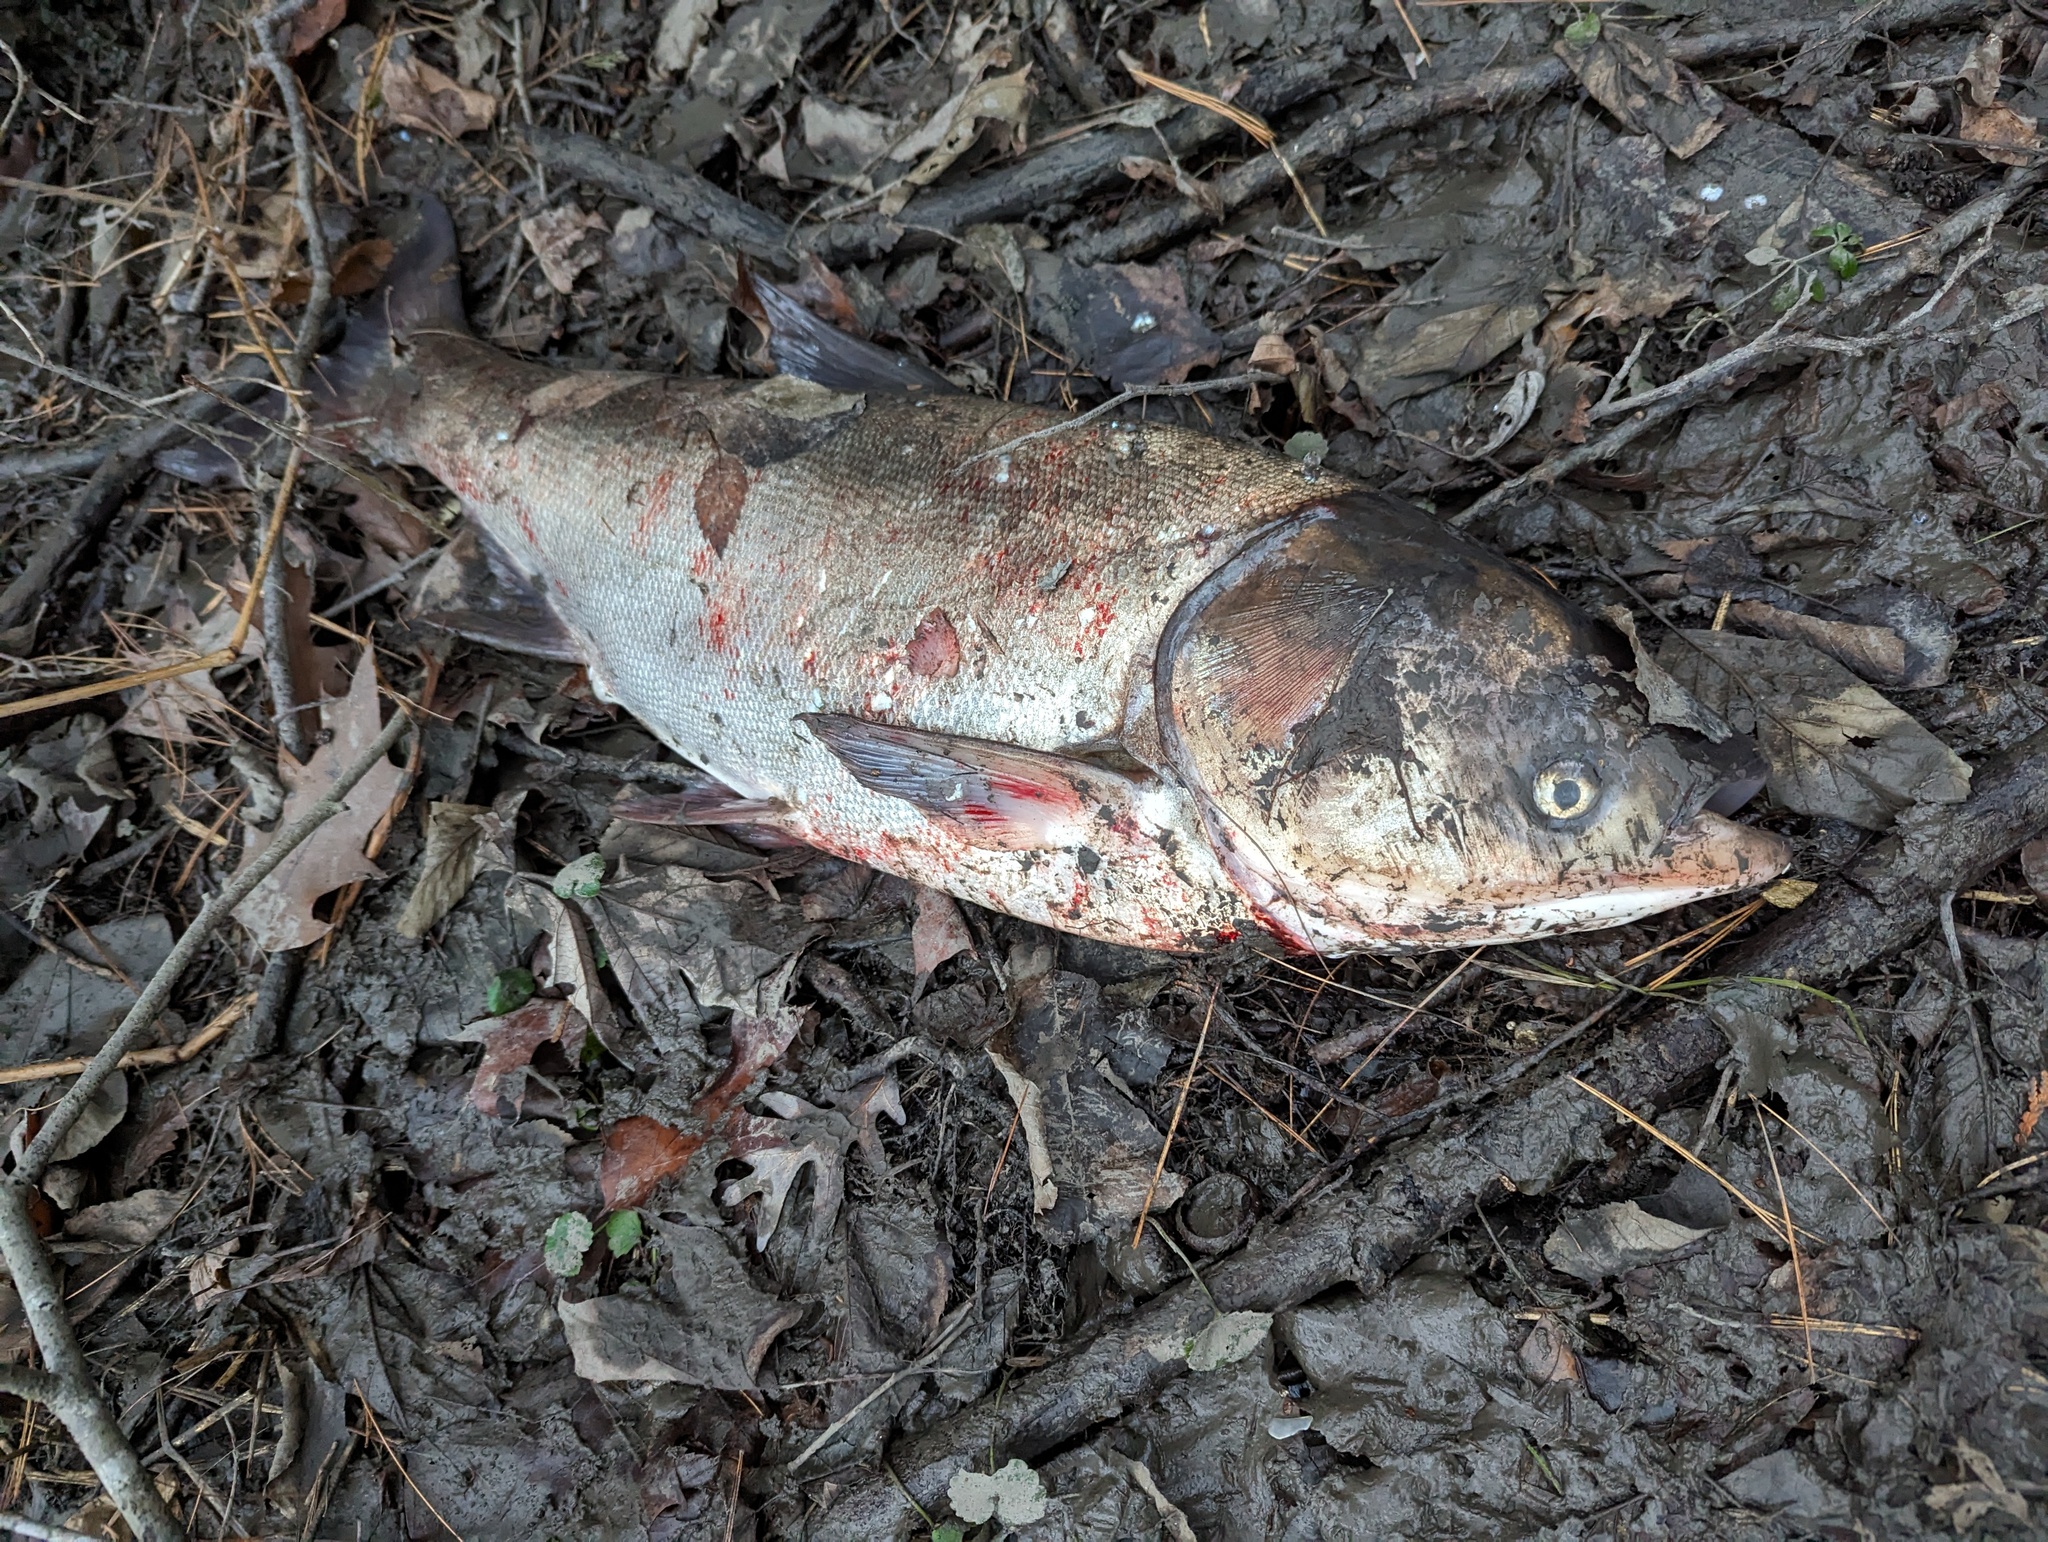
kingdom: Animalia
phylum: Chordata
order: Cypriniformes
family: Cyprinidae
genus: Hypophthalmichthys
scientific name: Hypophthalmichthys nobilis
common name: Bighead carp
